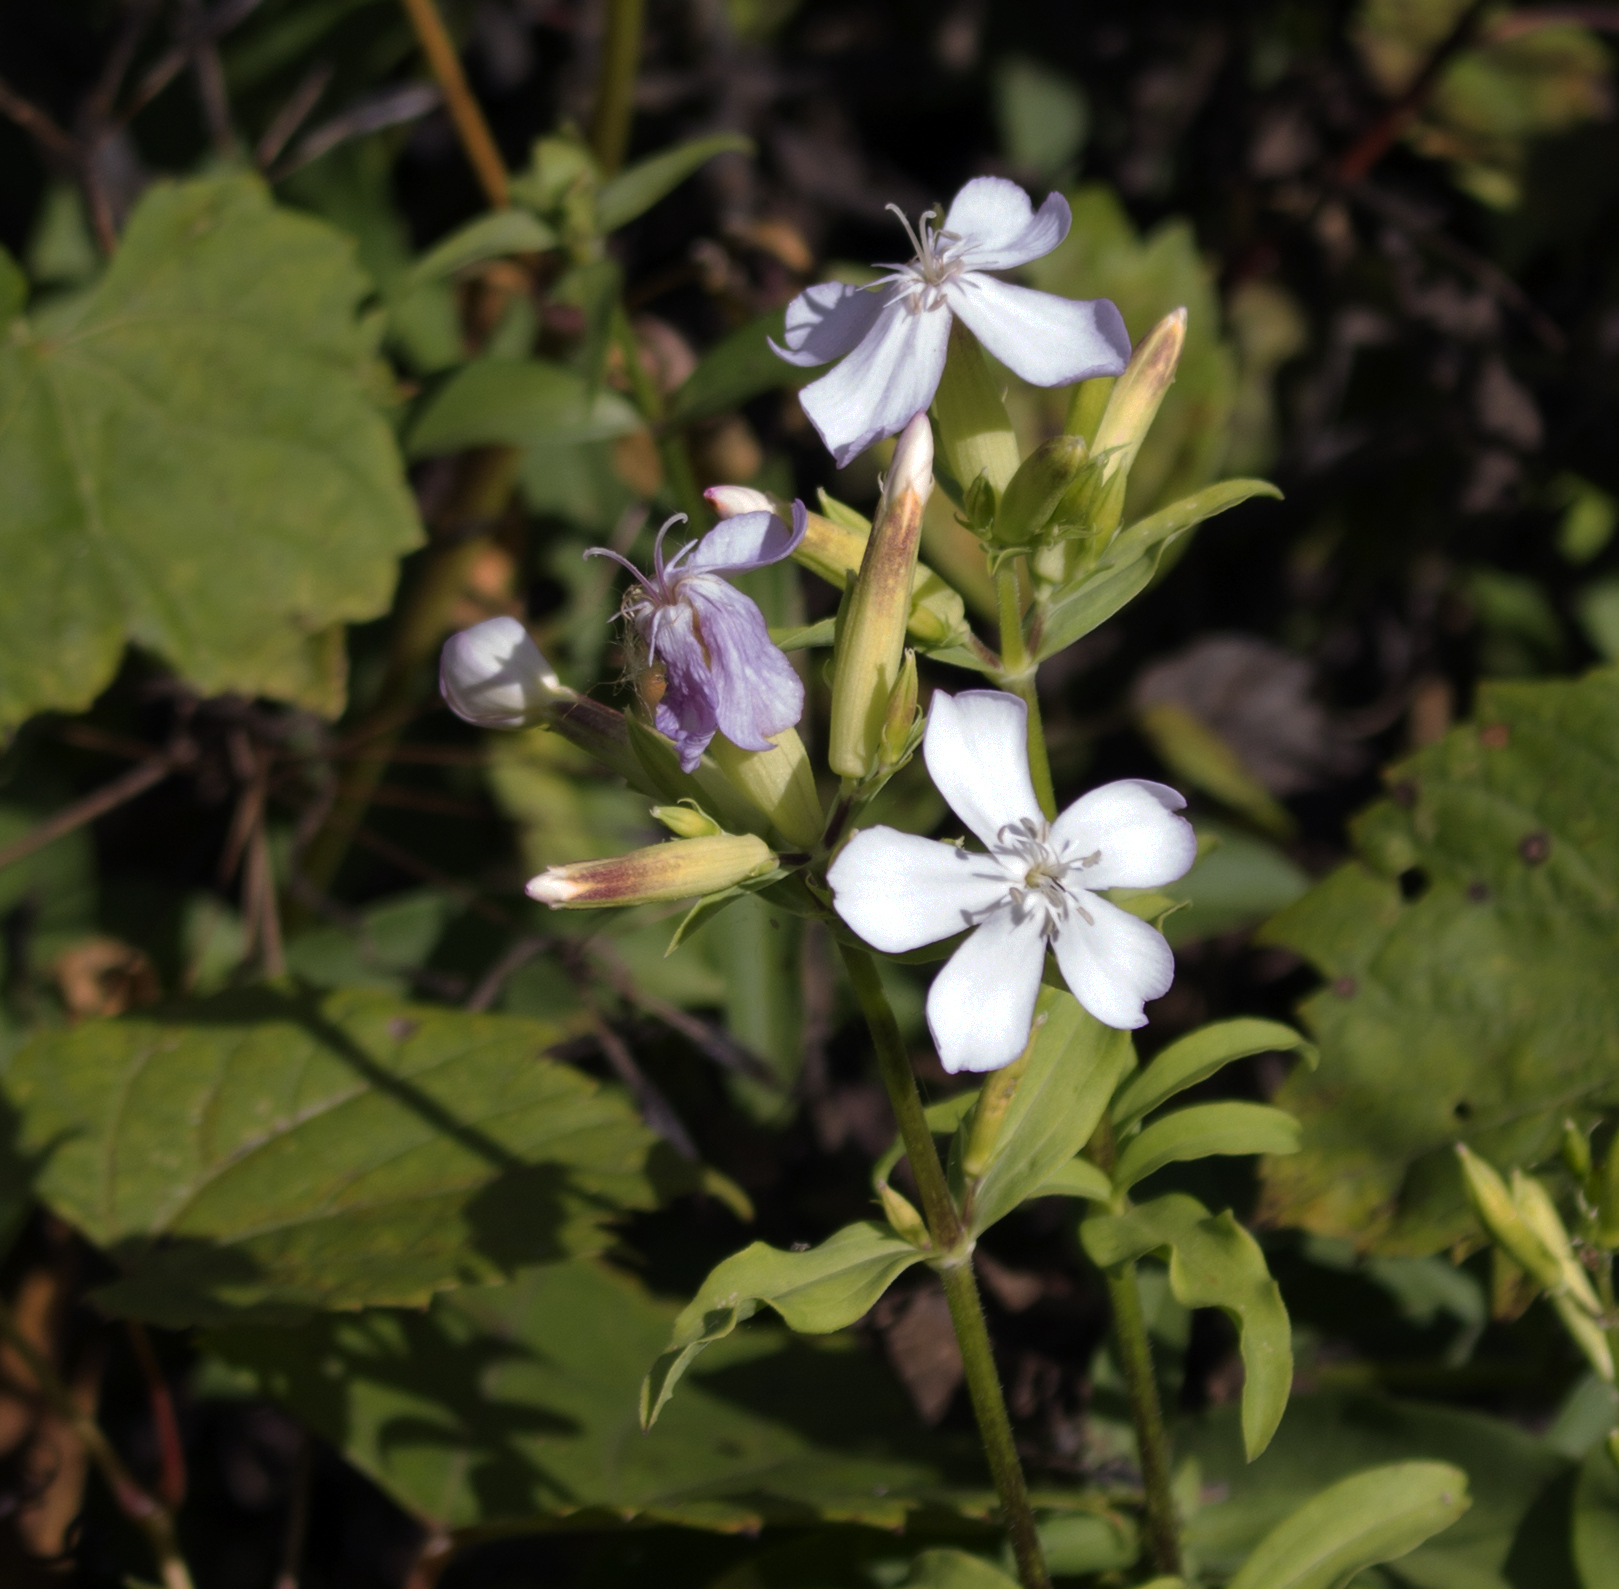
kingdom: Plantae
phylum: Tracheophyta
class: Magnoliopsida
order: Caryophyllales
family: Caryophyllaceae
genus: Saponaria
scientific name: Saponaria officinalis
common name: Soapwort
